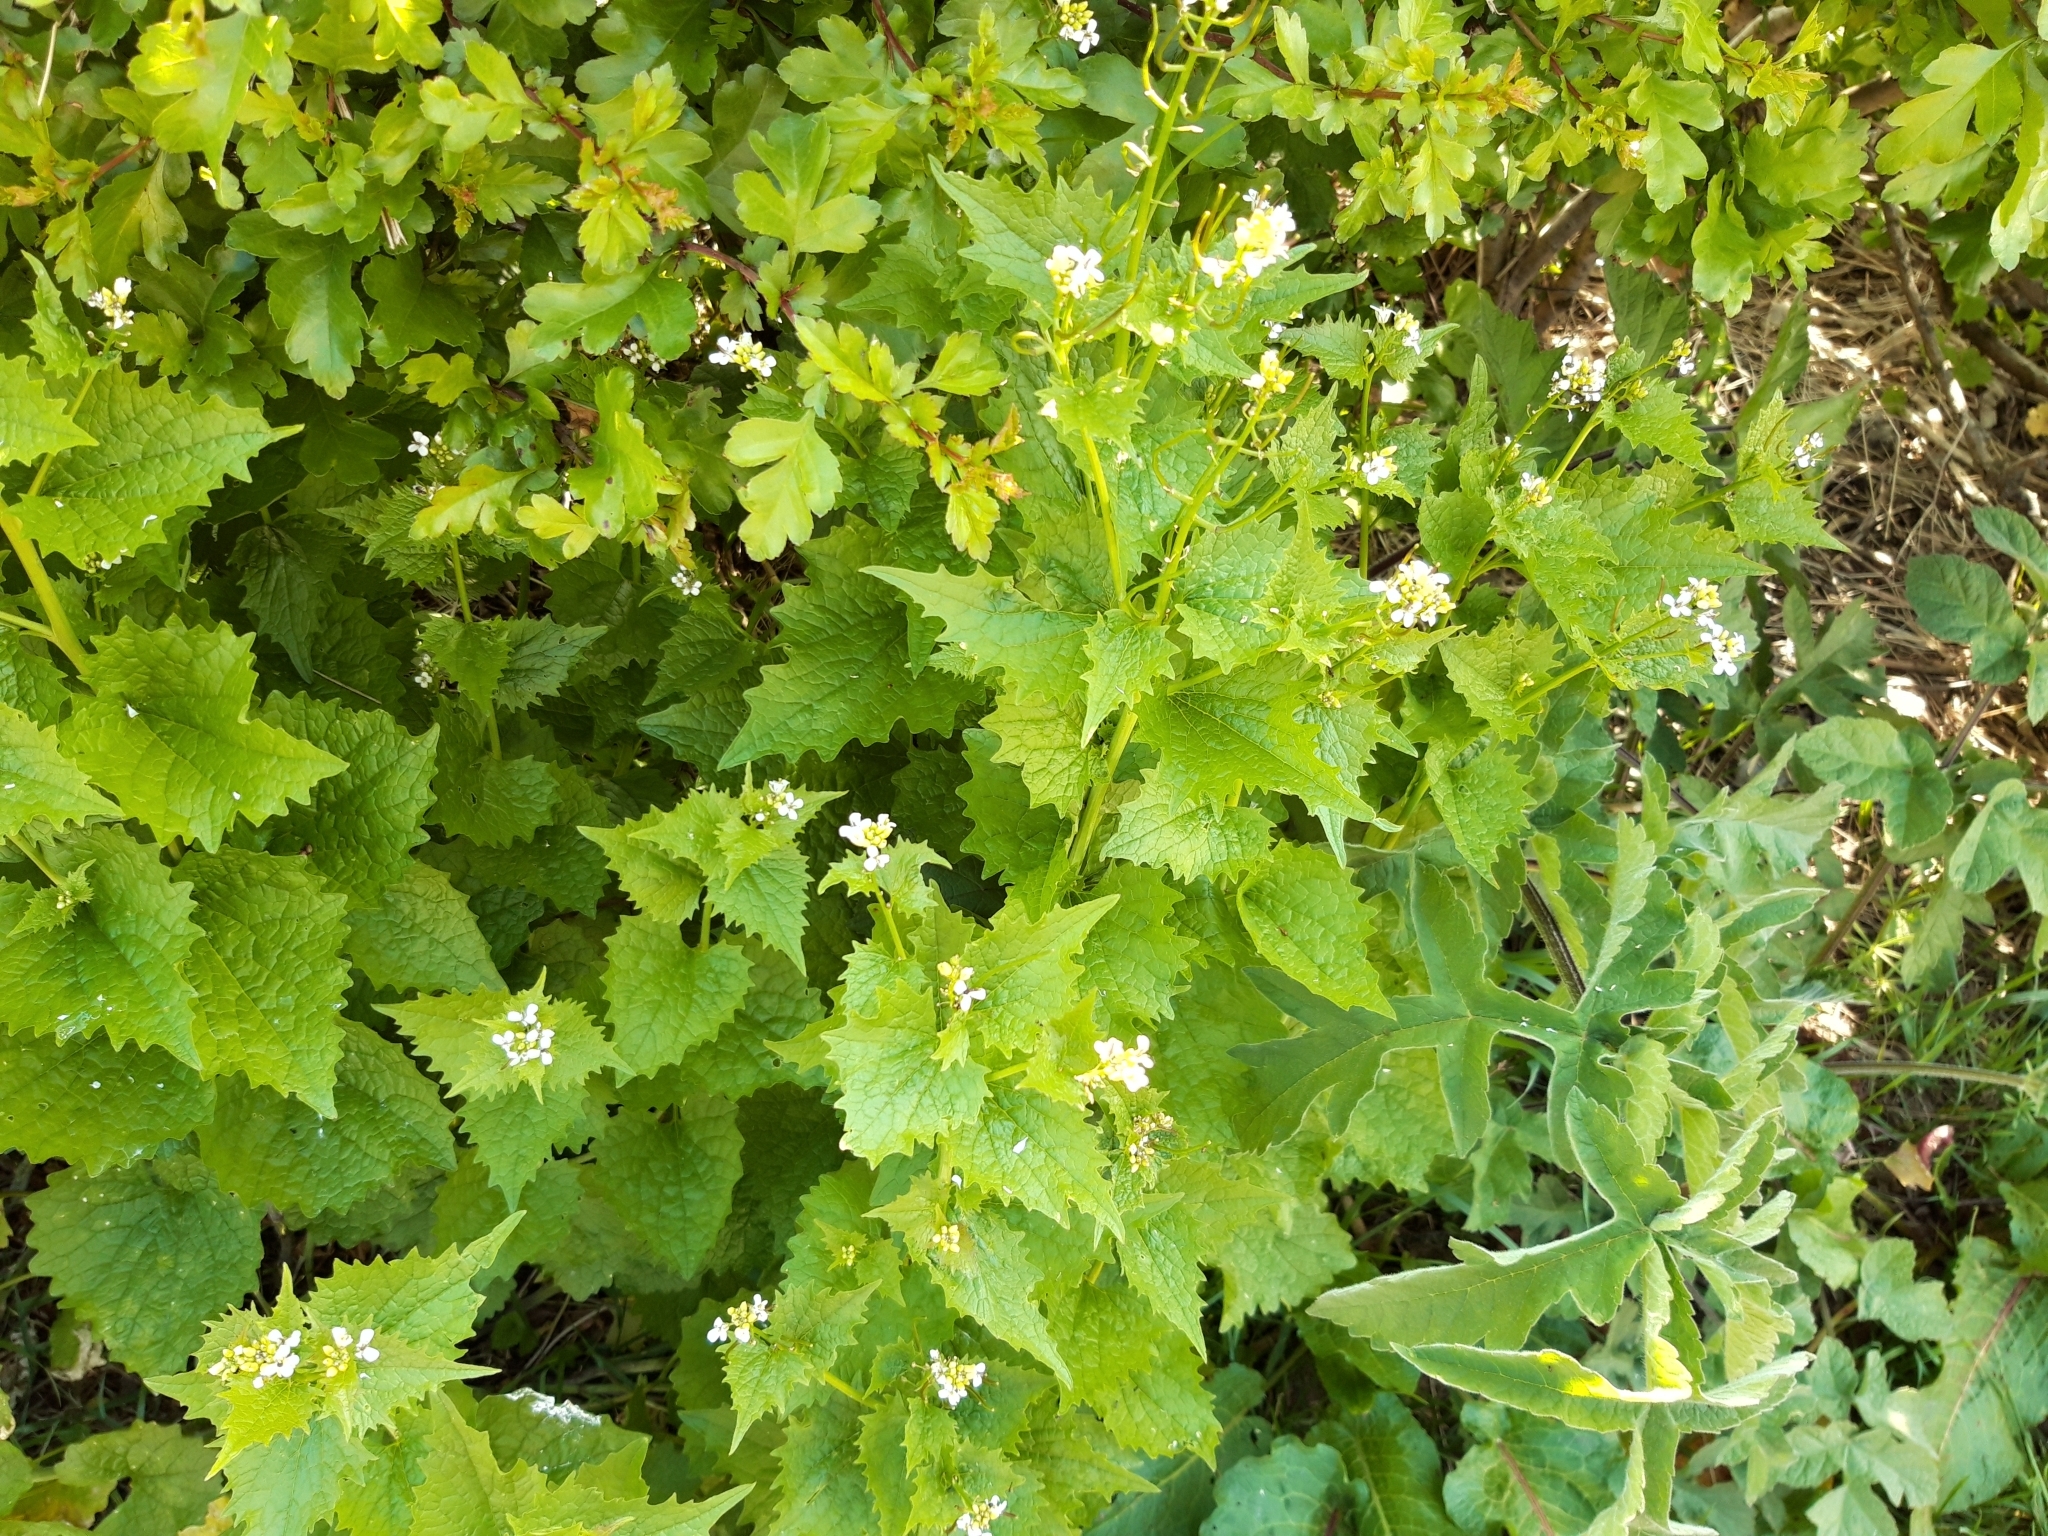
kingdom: Plantae
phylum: Tracheophyta
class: Magnoliopsida
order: Brassicales
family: Brassicaceae
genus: Alliaria
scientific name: Alliaria petiolata
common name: Garlic mustard
